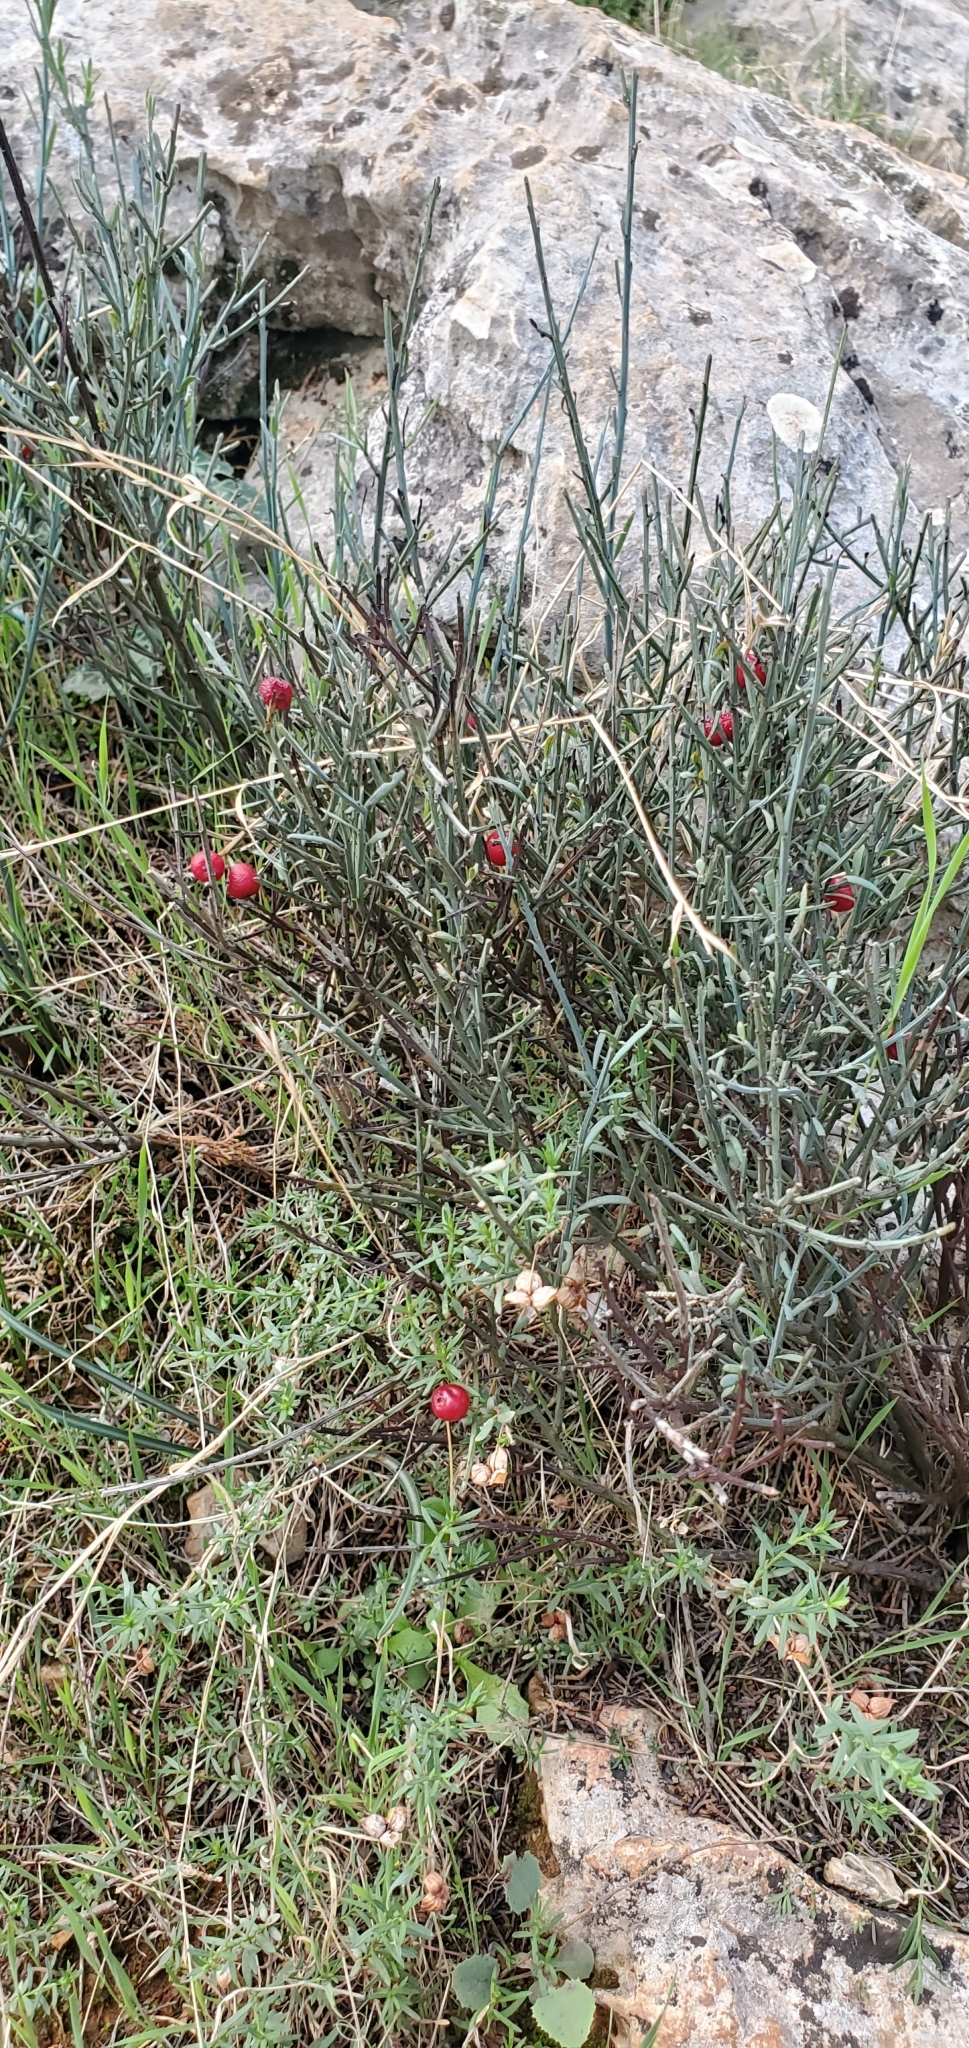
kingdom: Plantae
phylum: Tracheophyta
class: Magnoliopsida
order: Santalales
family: Santalaceae
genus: Osyris
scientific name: Osyris alba
